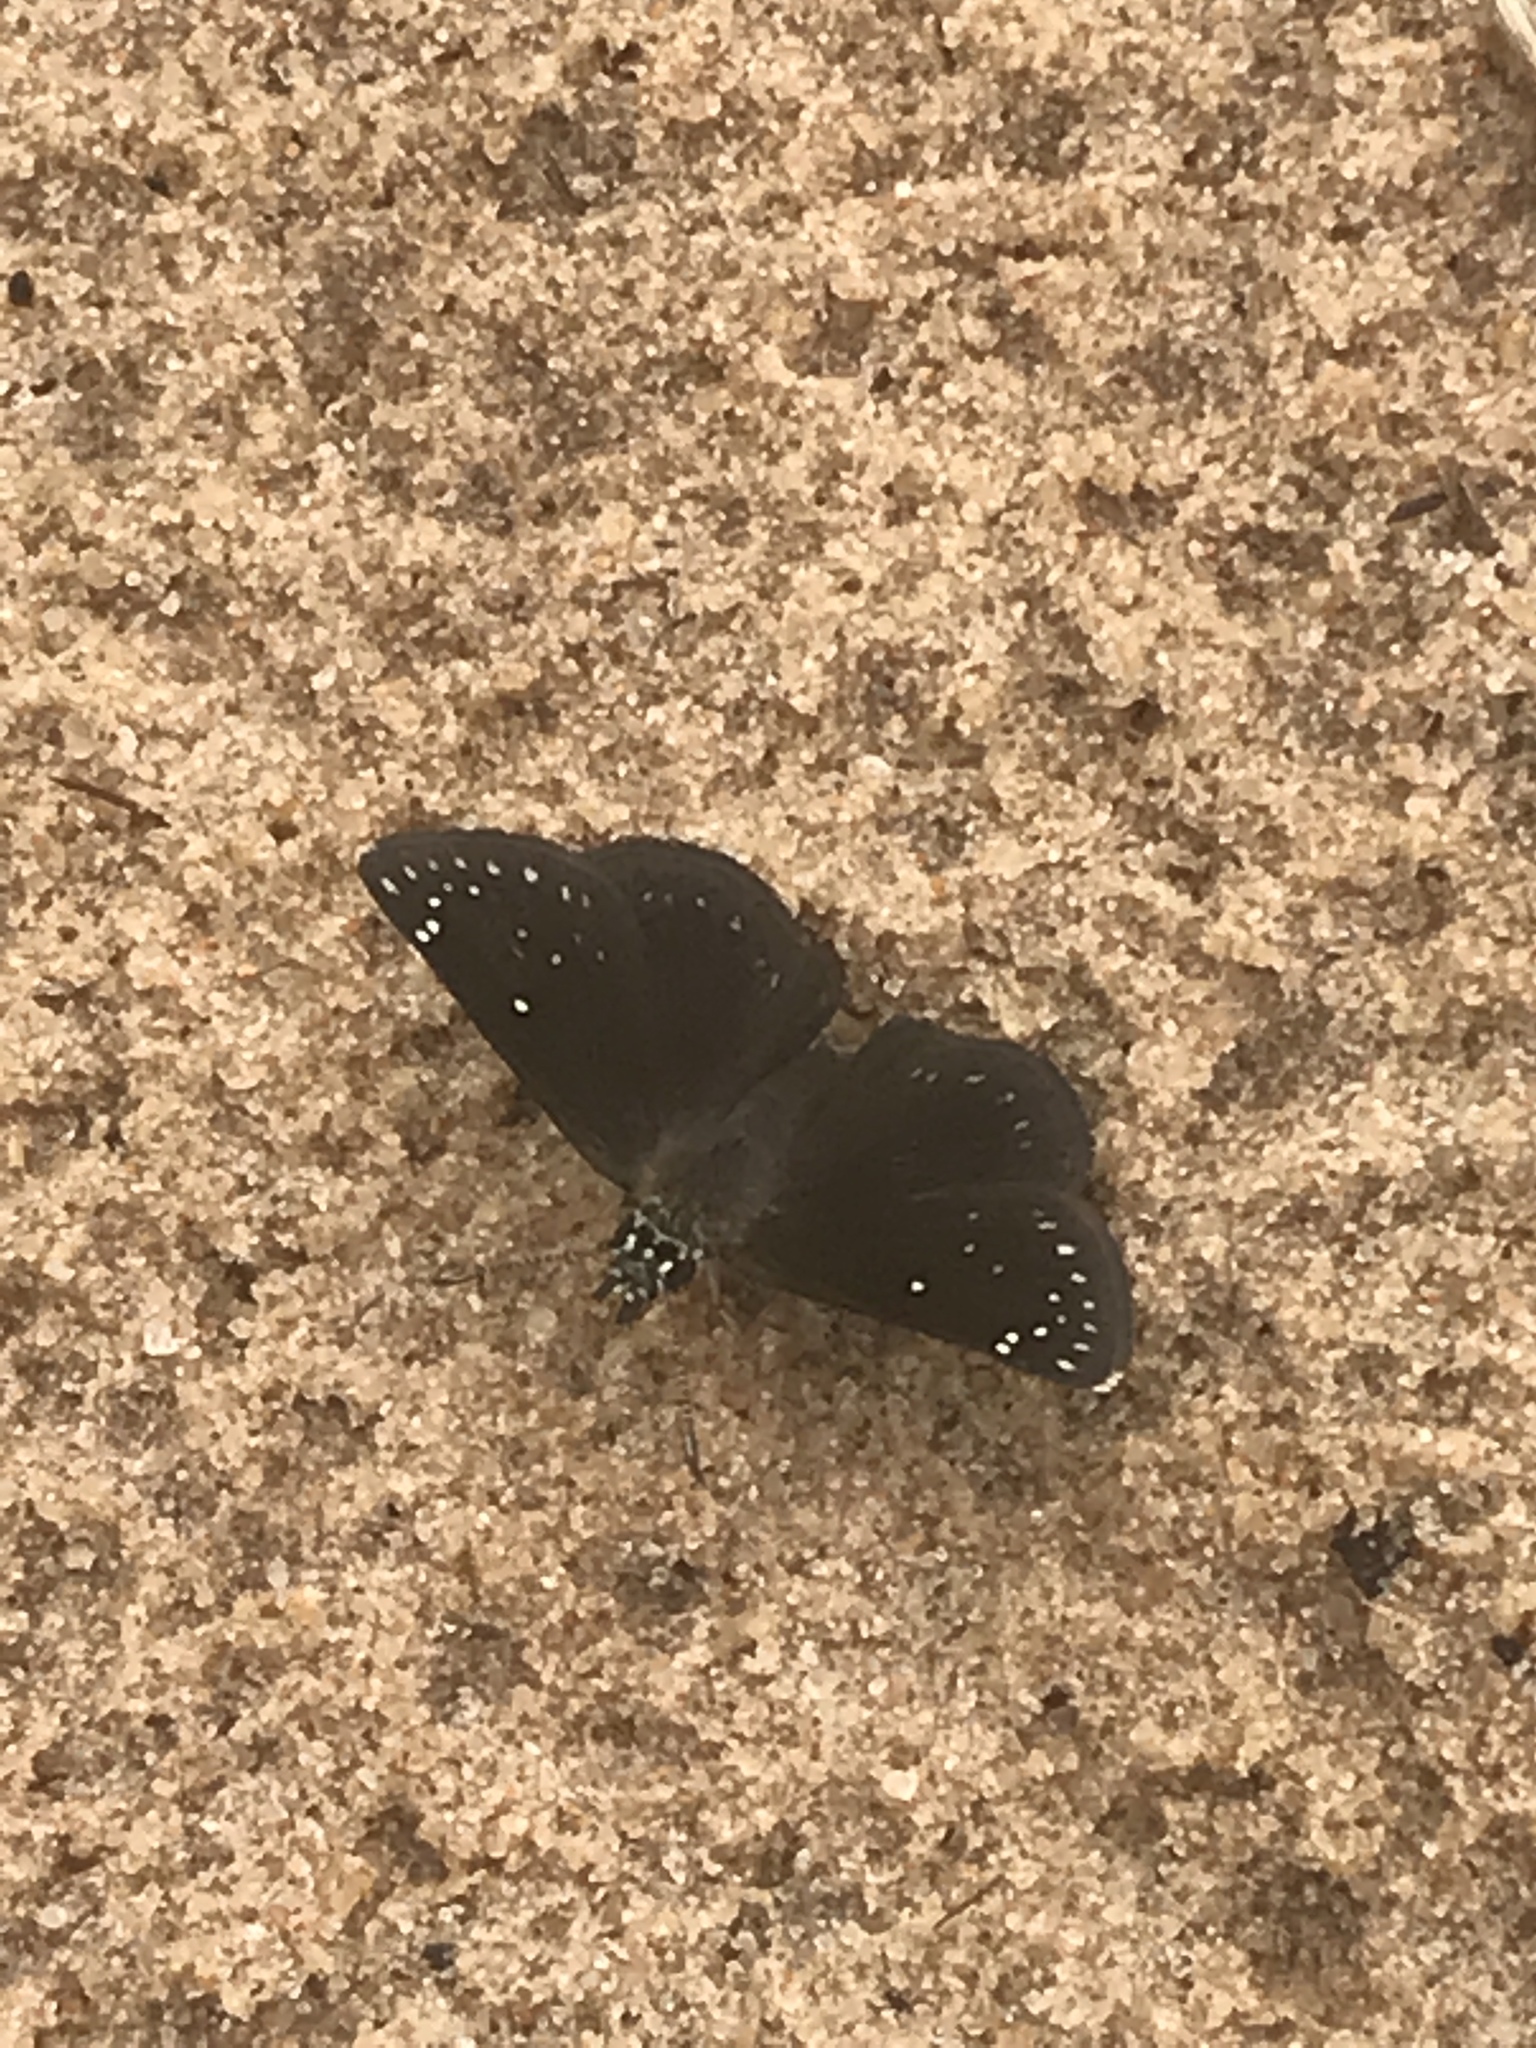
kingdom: Animalia
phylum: Arthropoda
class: Insecta
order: Lepidoptera
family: Hesperiidae
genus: Pholisora
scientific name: Pholisora catullus
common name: Common sootywing
